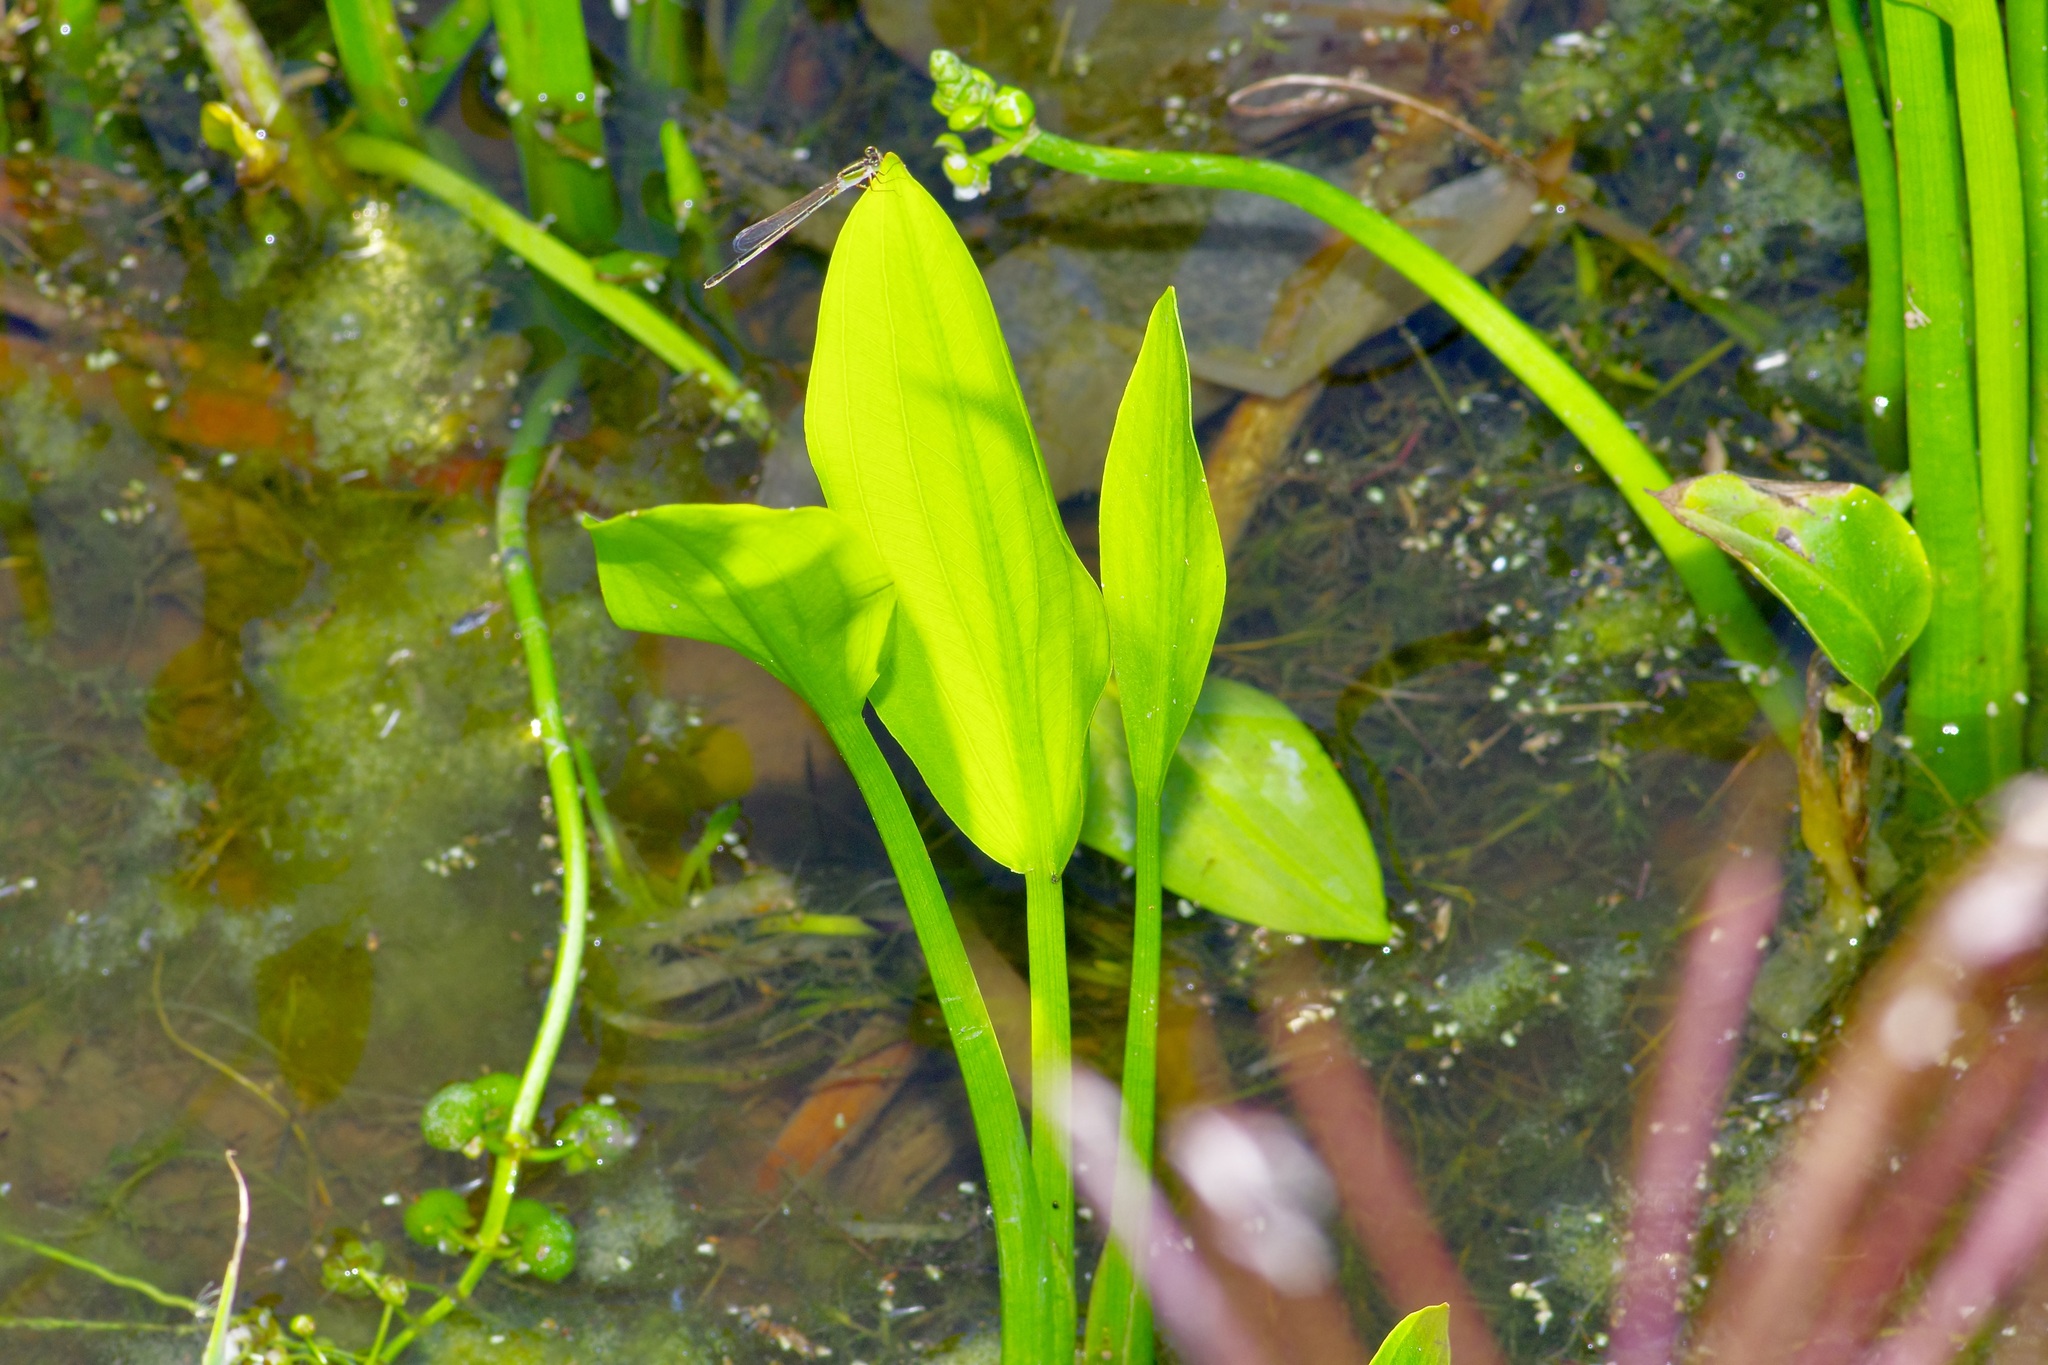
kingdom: Plantae
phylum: Tracheophyta
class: Liliopsida
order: Alismatales
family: Alismataceae
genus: Sagittaria
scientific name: Sagittaria platyphylla
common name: Broad-leaf arrowhead
